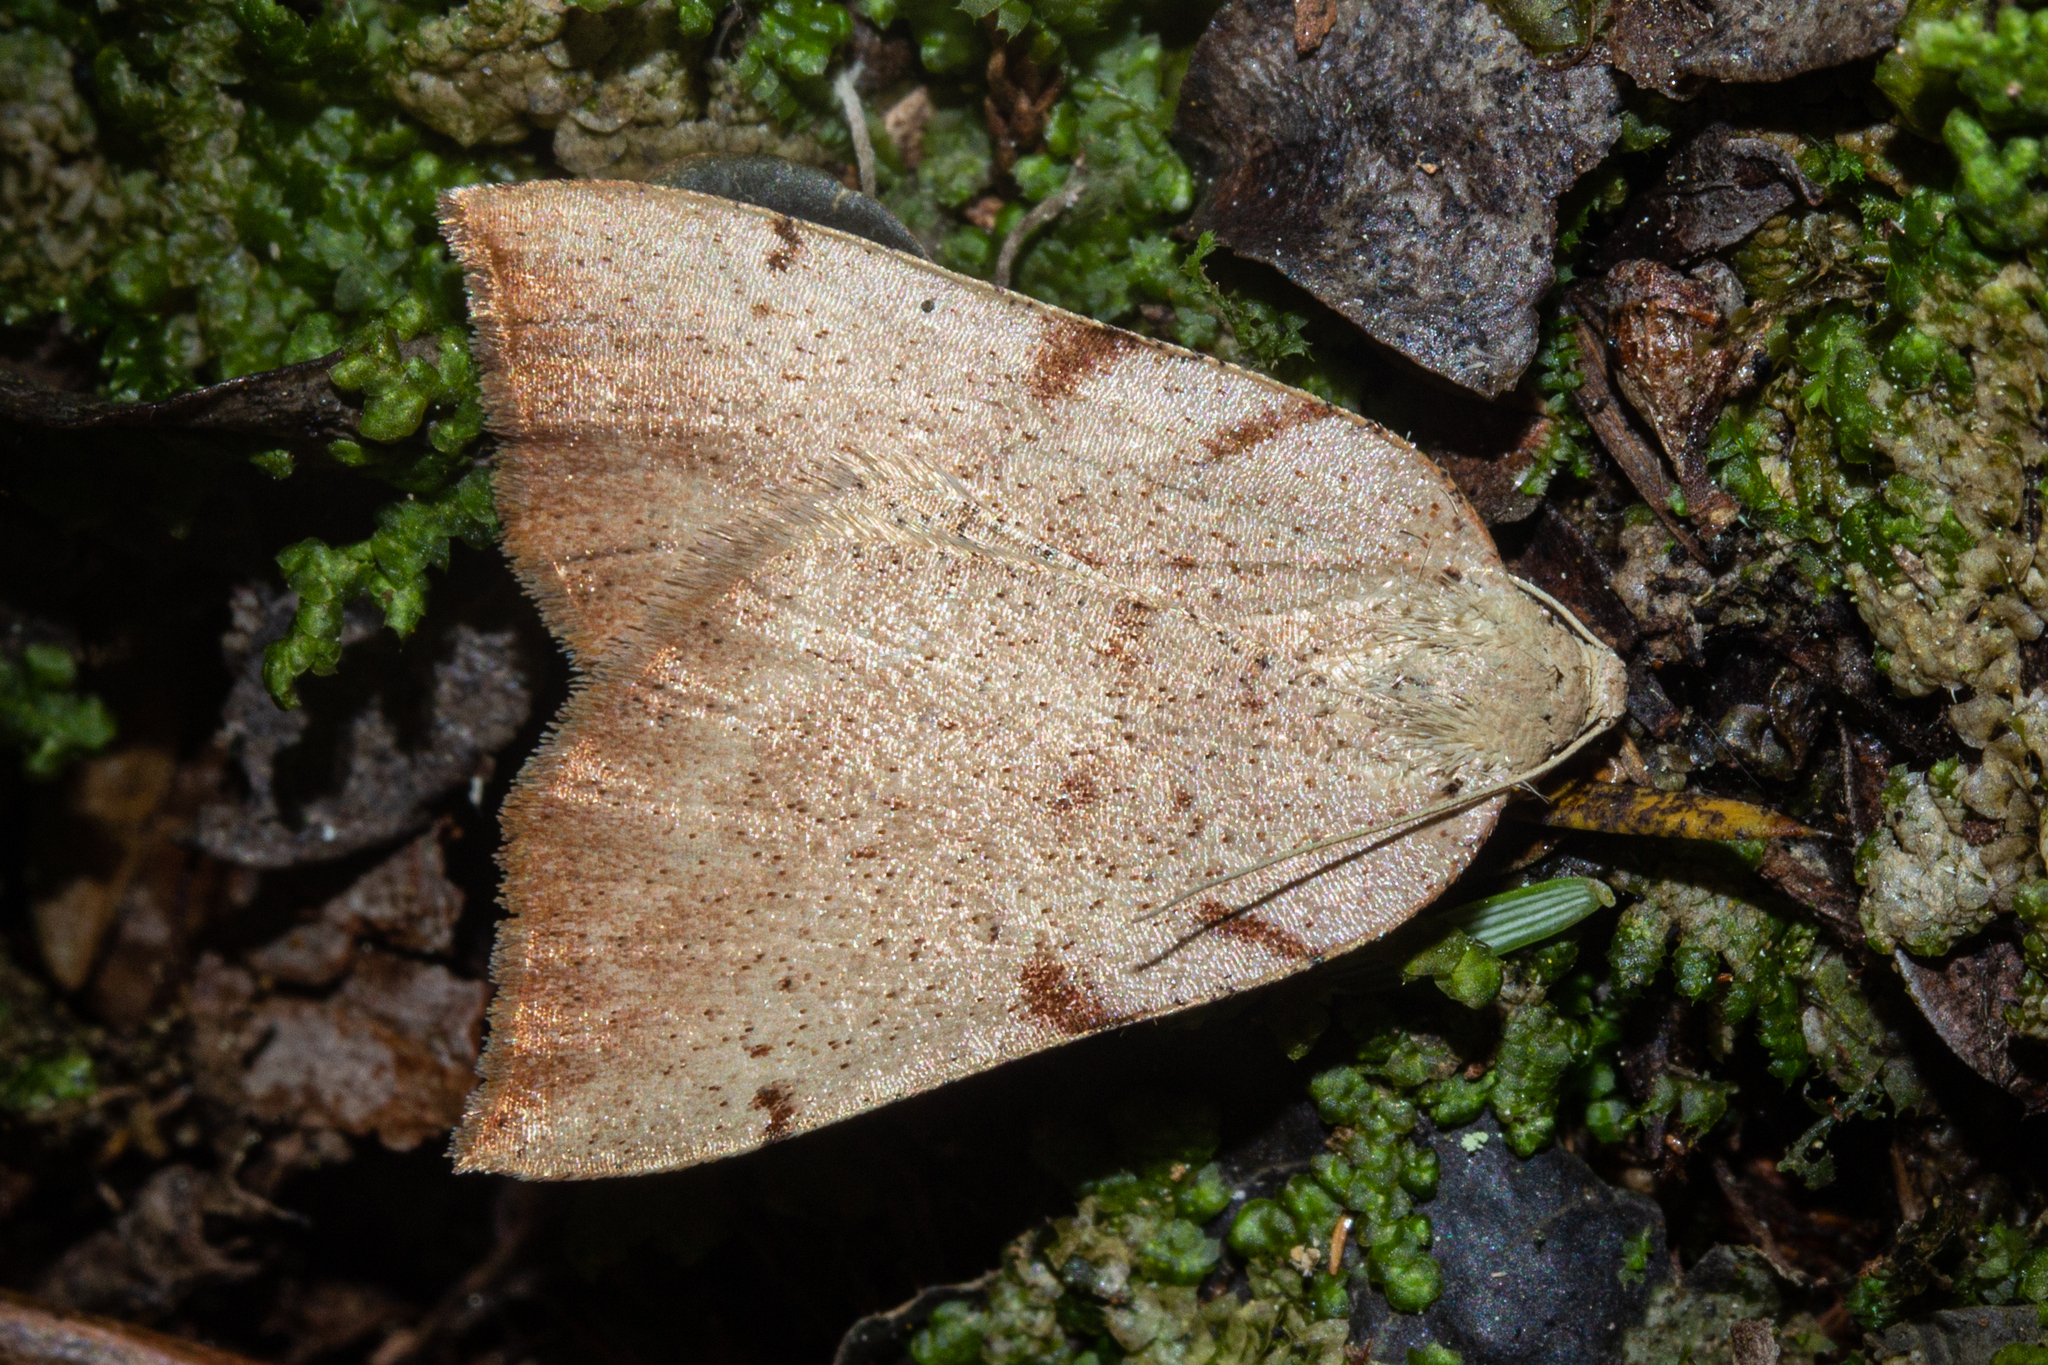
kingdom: Animalia
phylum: Arthropoda
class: Insecta
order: Lepidoptera
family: Geometridae
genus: Sestra
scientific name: Sestra humeraria
